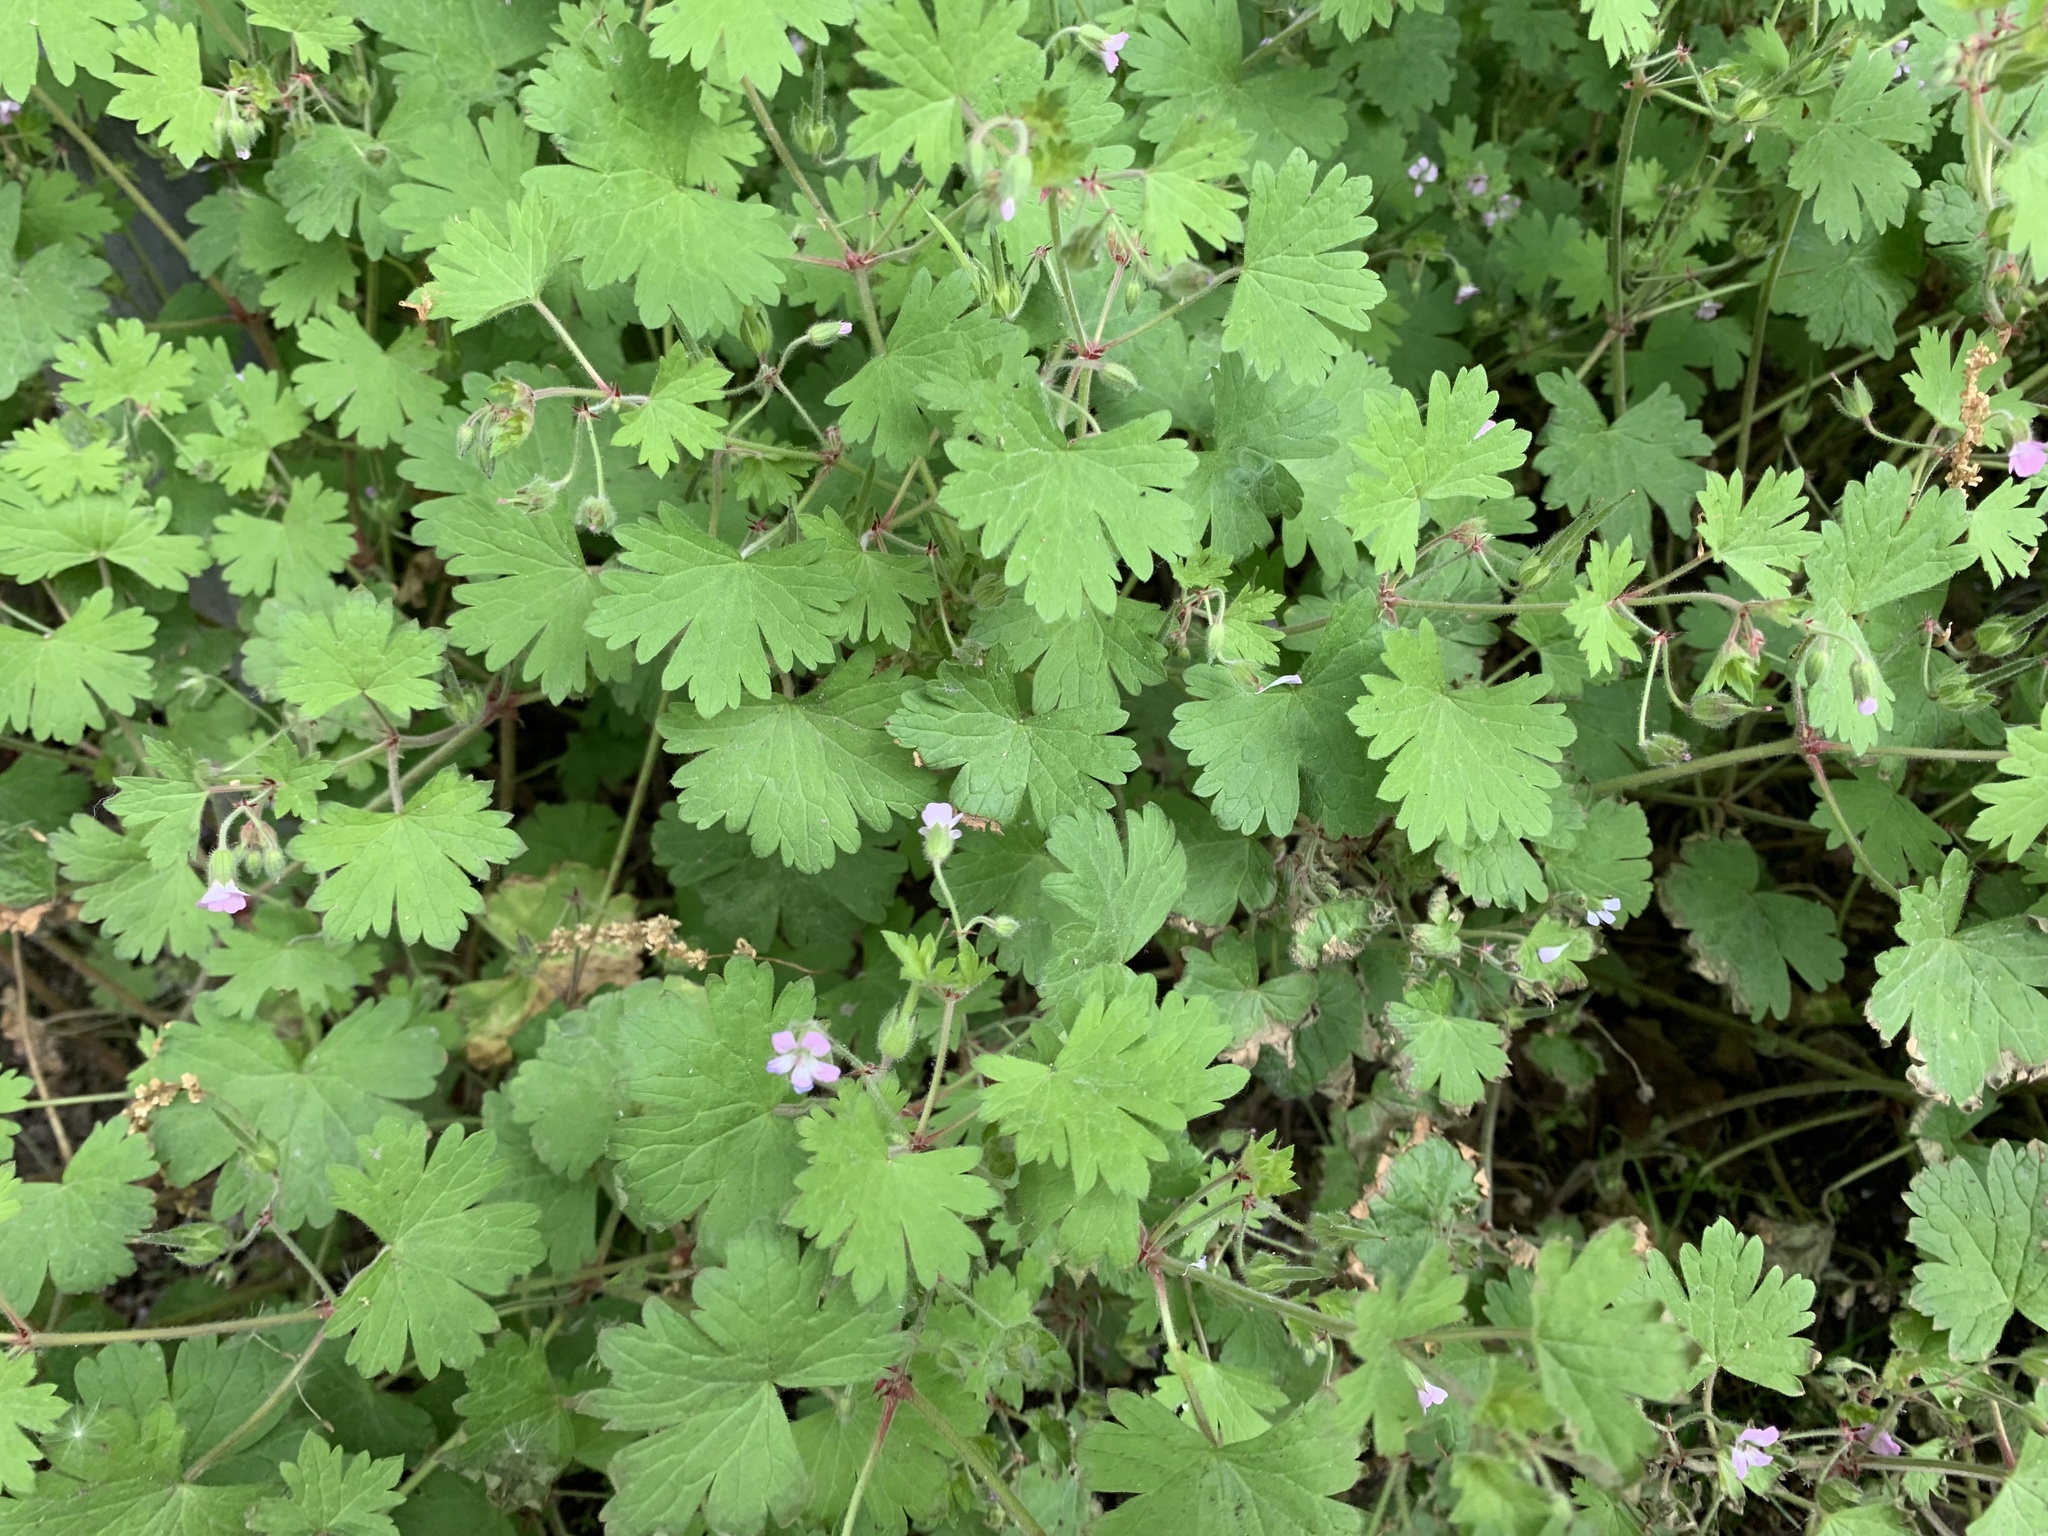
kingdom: Plantae
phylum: Tracheophyta
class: Magnoliopsida
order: Geraniales
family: Geraniaceae
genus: Geranium
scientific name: Geranium rotundifolium
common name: Round-leaved crane's-bill
